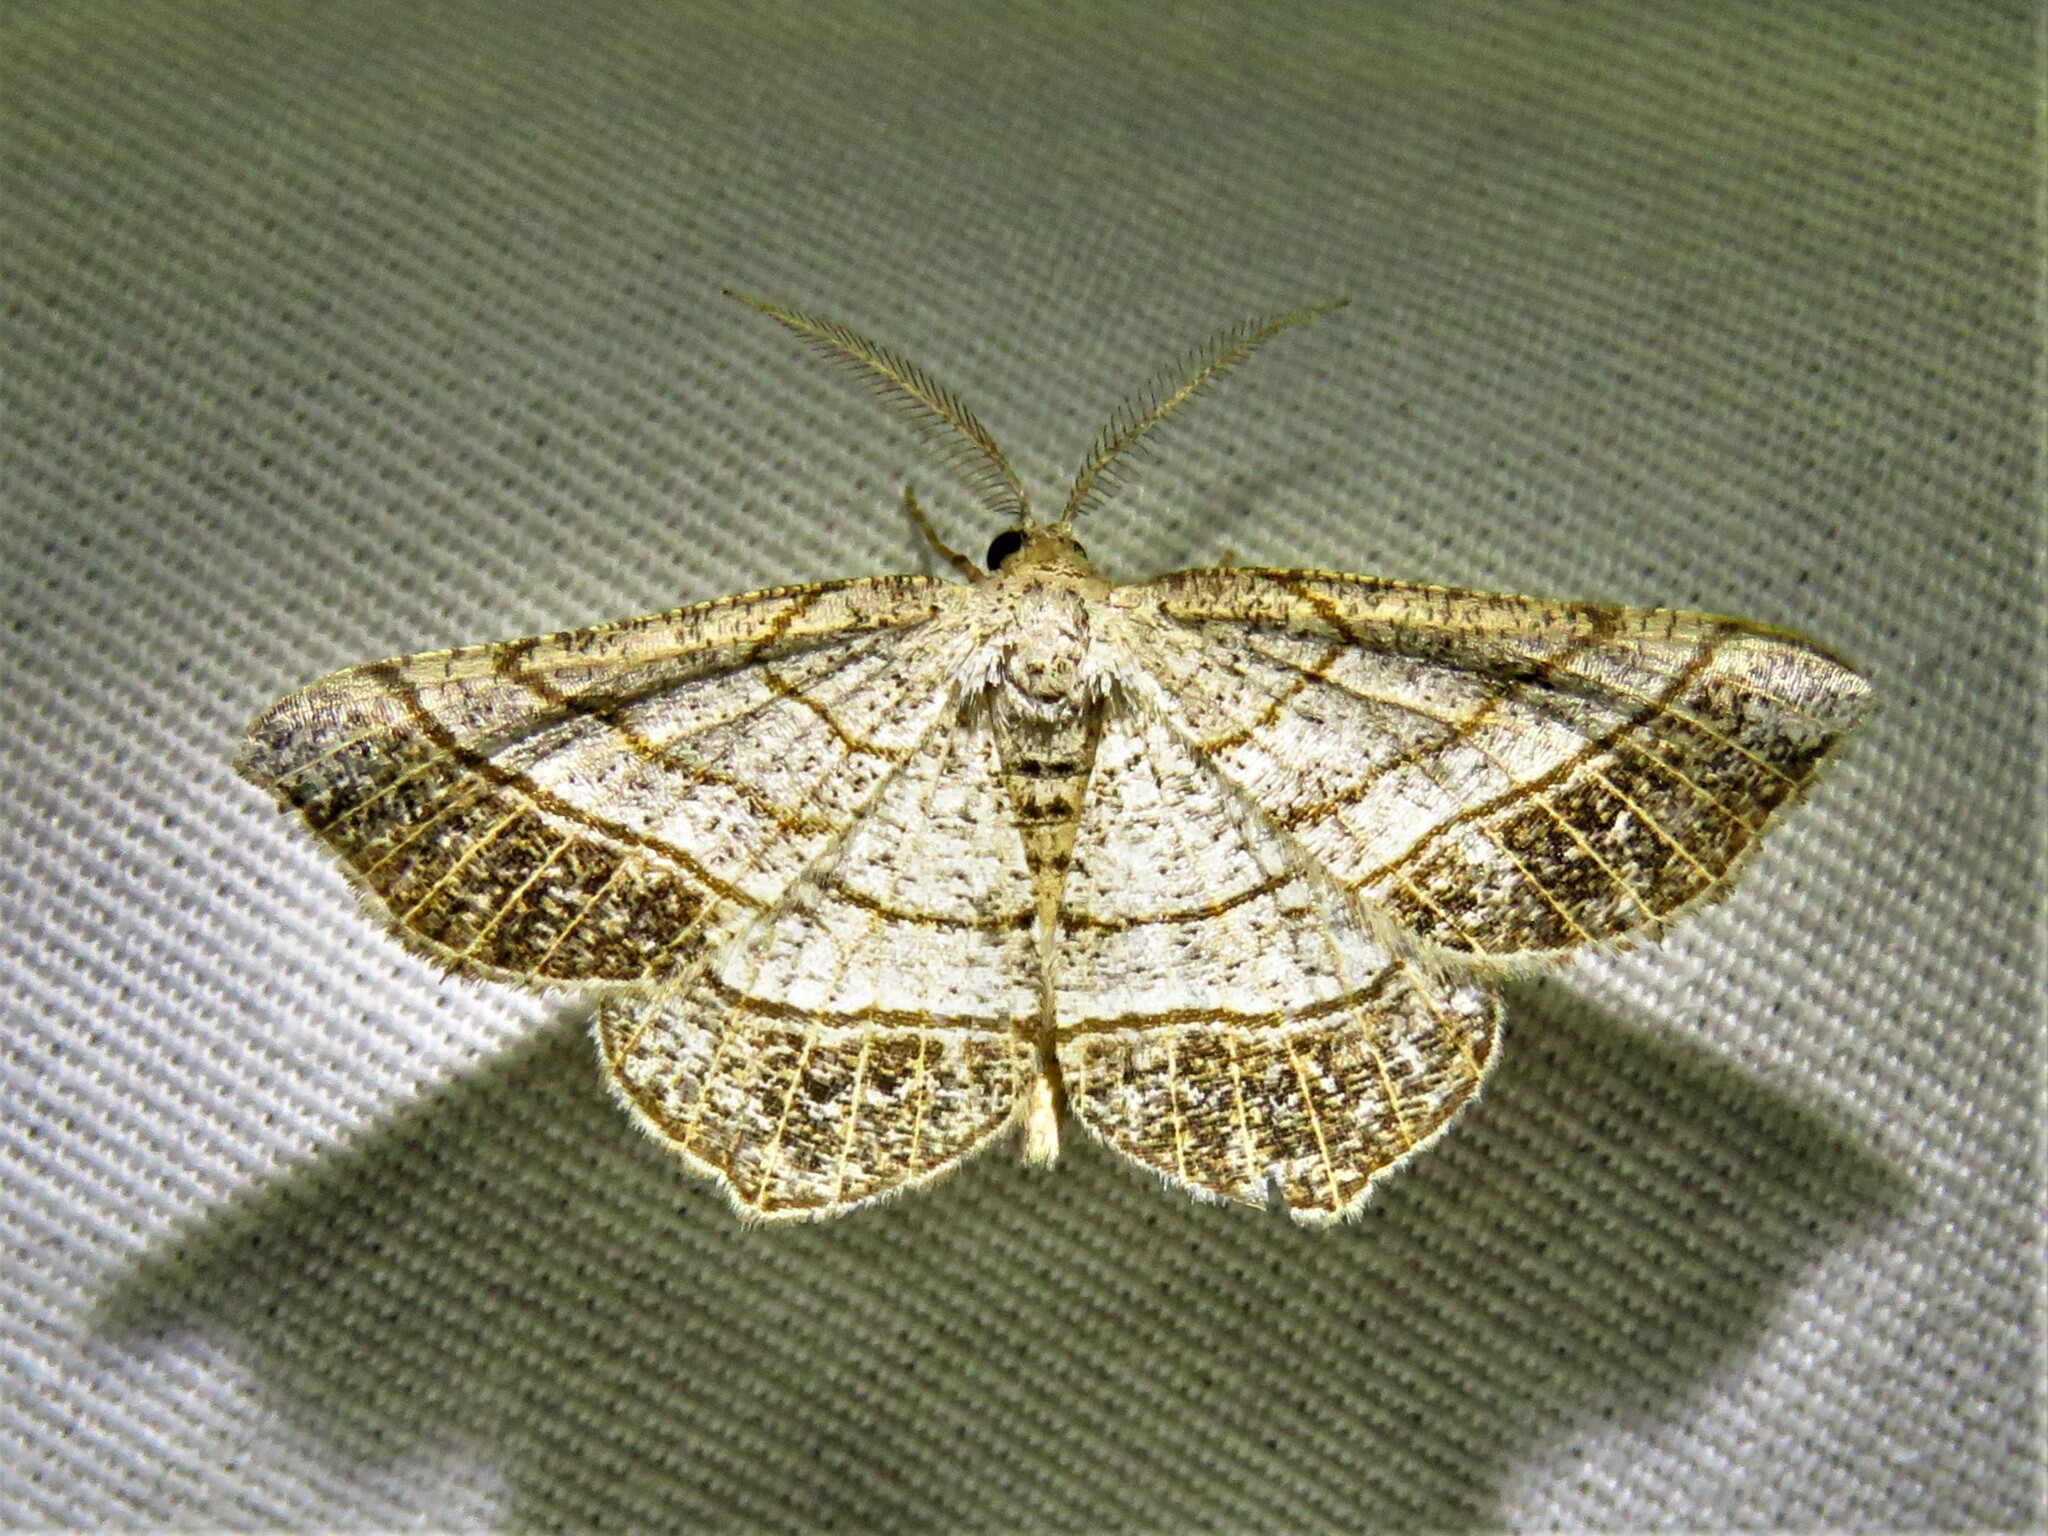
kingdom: Animalia
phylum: Arthropoda
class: Insecta
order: Lepidoptera
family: Geometridae
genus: Eumacaria
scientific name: Eumacaria madopata
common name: Brown-bordered geometer
